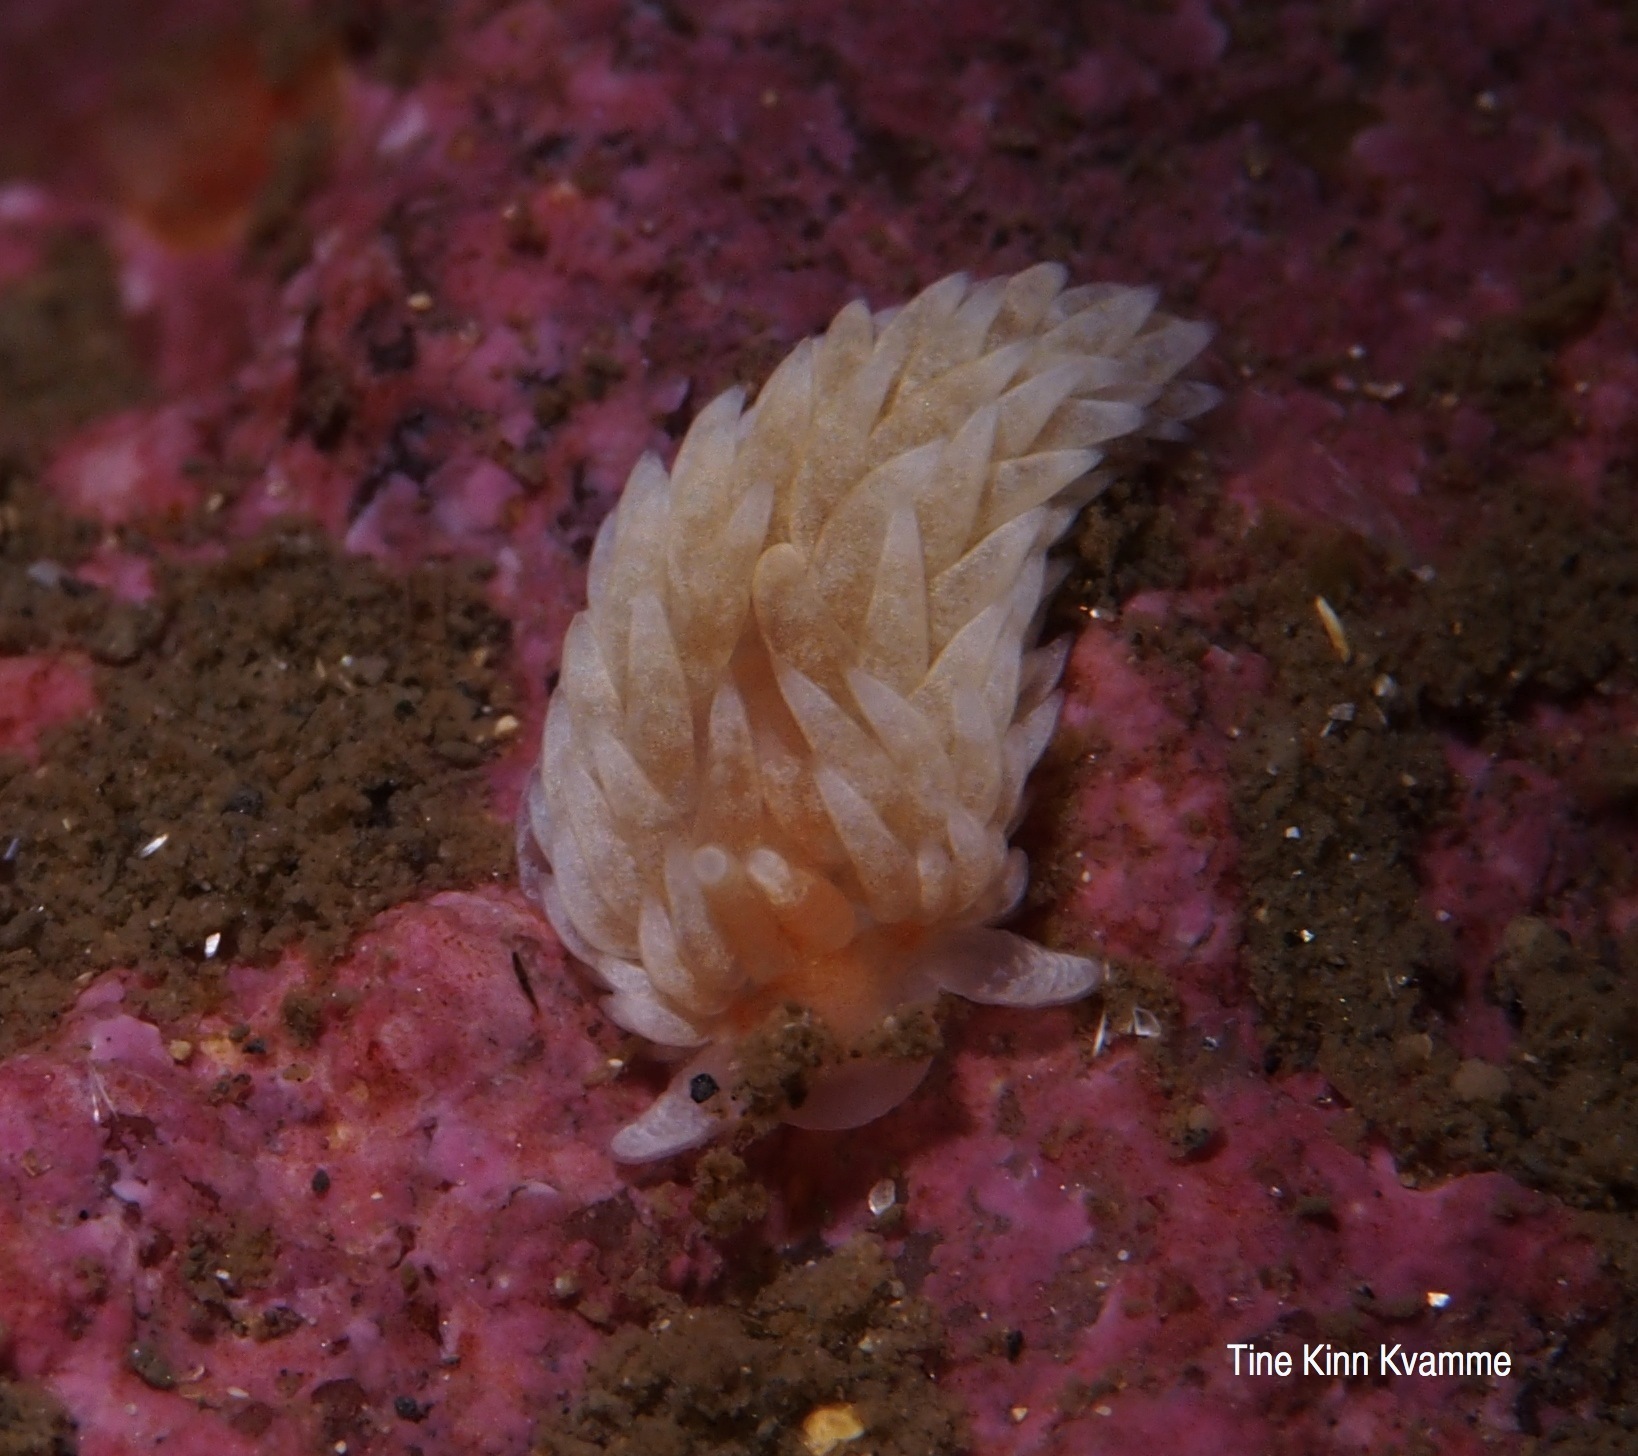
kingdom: Animalia
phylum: Mollusca
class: Gastropoda
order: Nudibranchia
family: Aeolidiidae
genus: Aeolidiella
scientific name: Aeolidiella glauca
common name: Orange-brown aeolid
